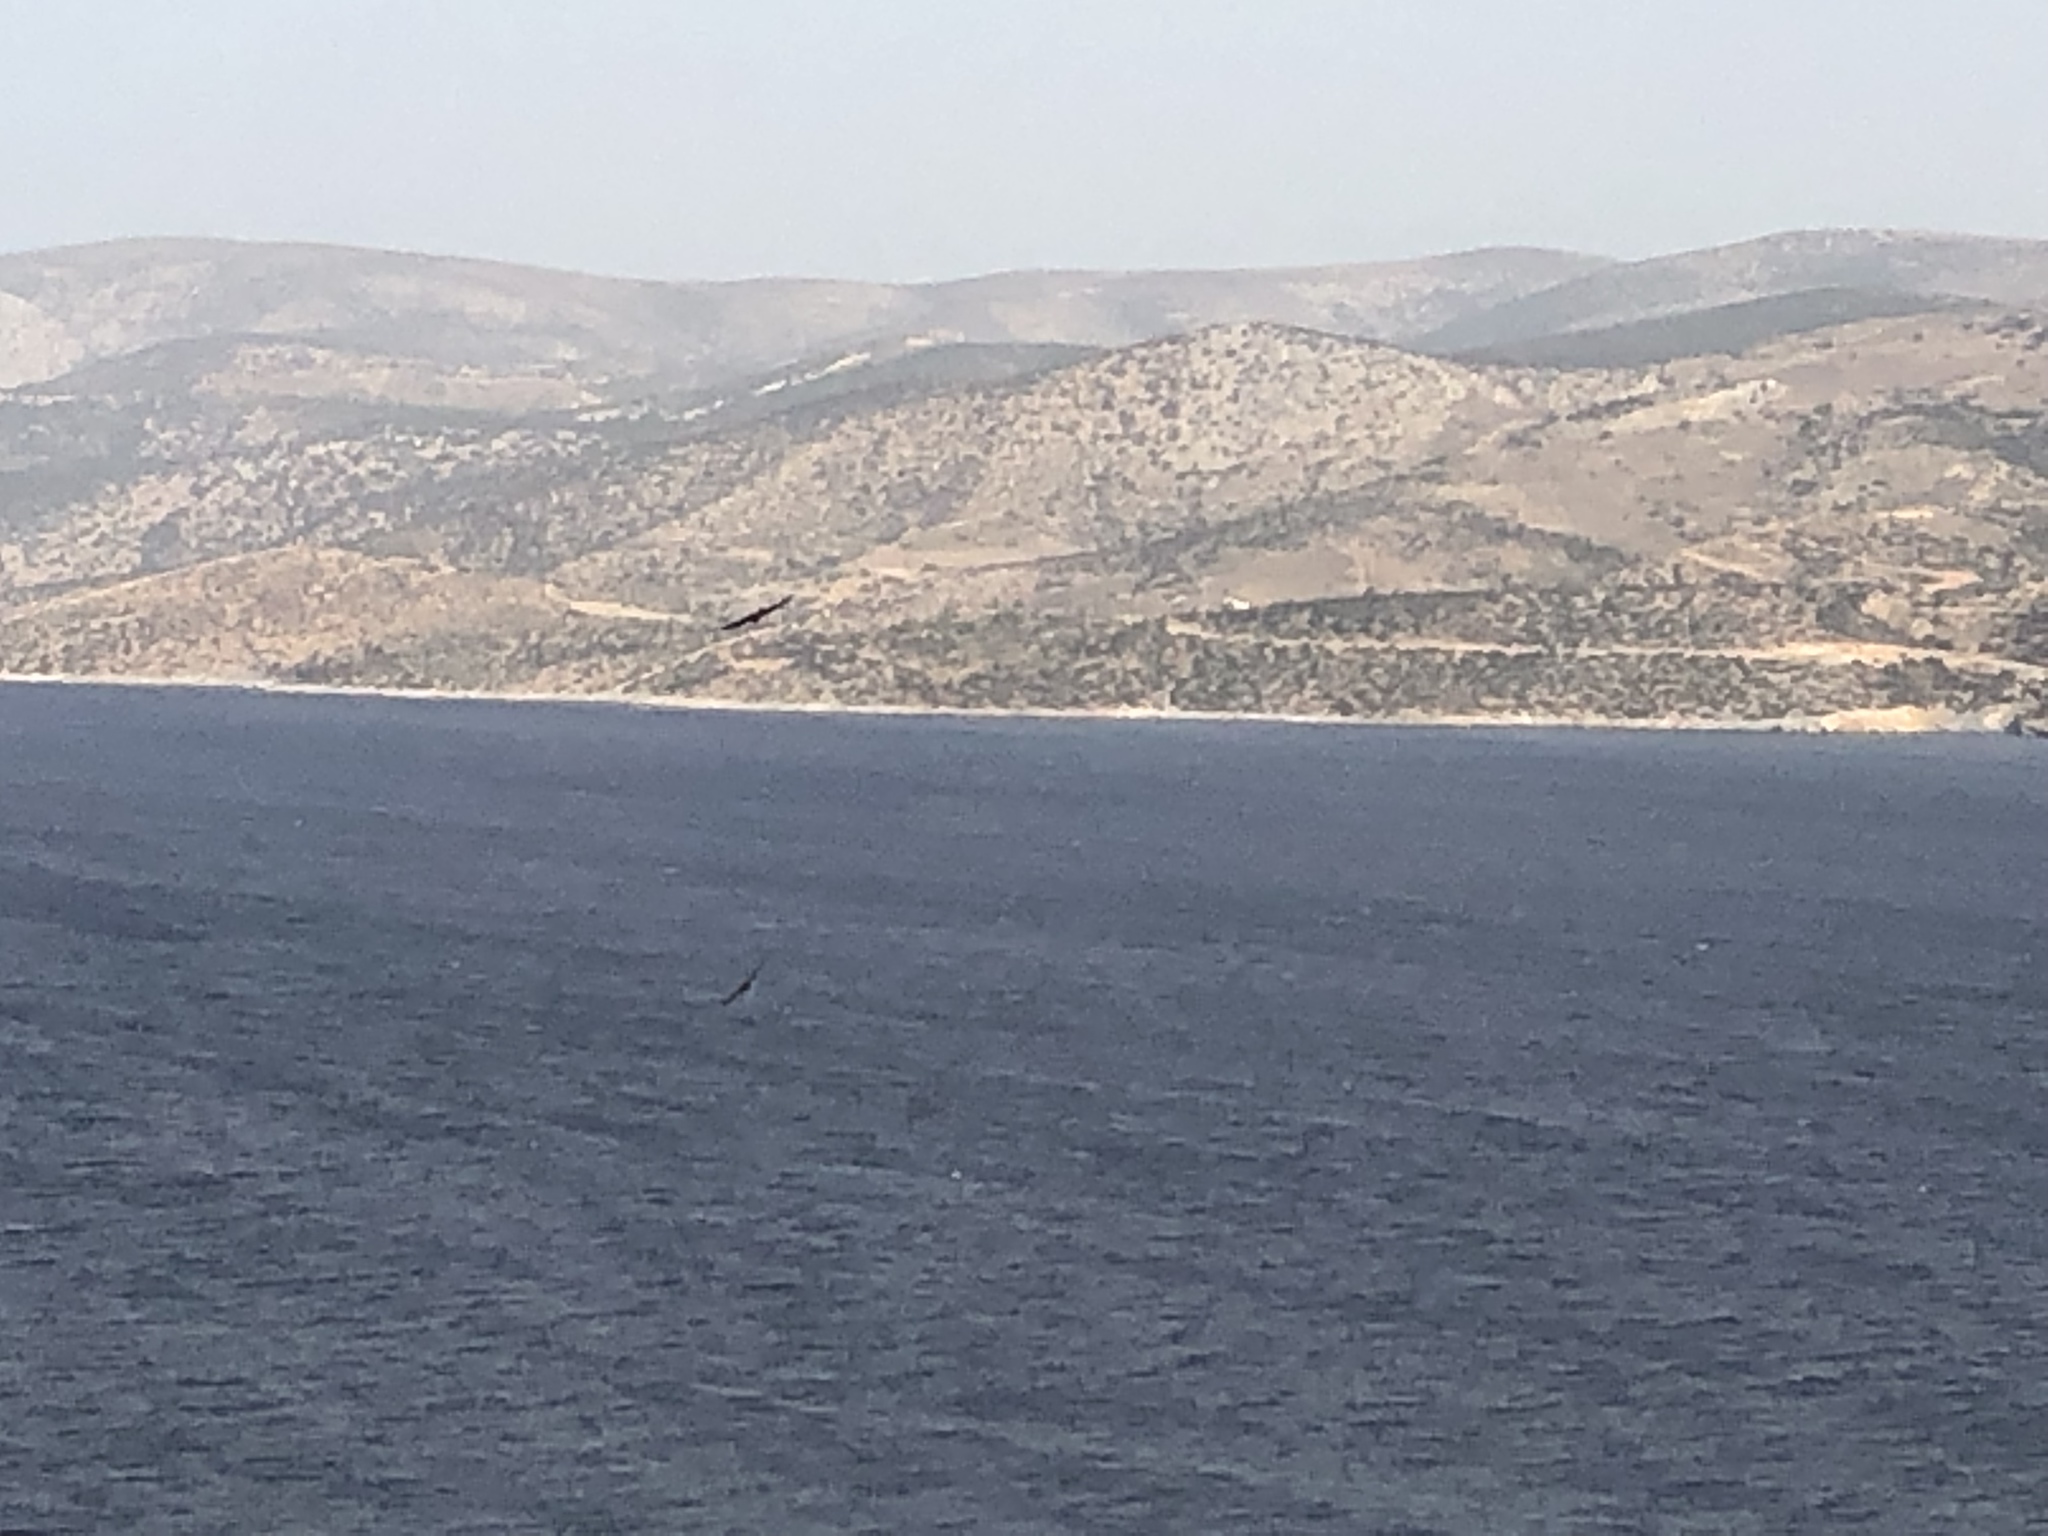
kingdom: Animalia
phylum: Chordata
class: Aves
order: Falconiformes
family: Falconidae
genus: Falco
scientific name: Falco eleonorae
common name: Eleonora's falcon
